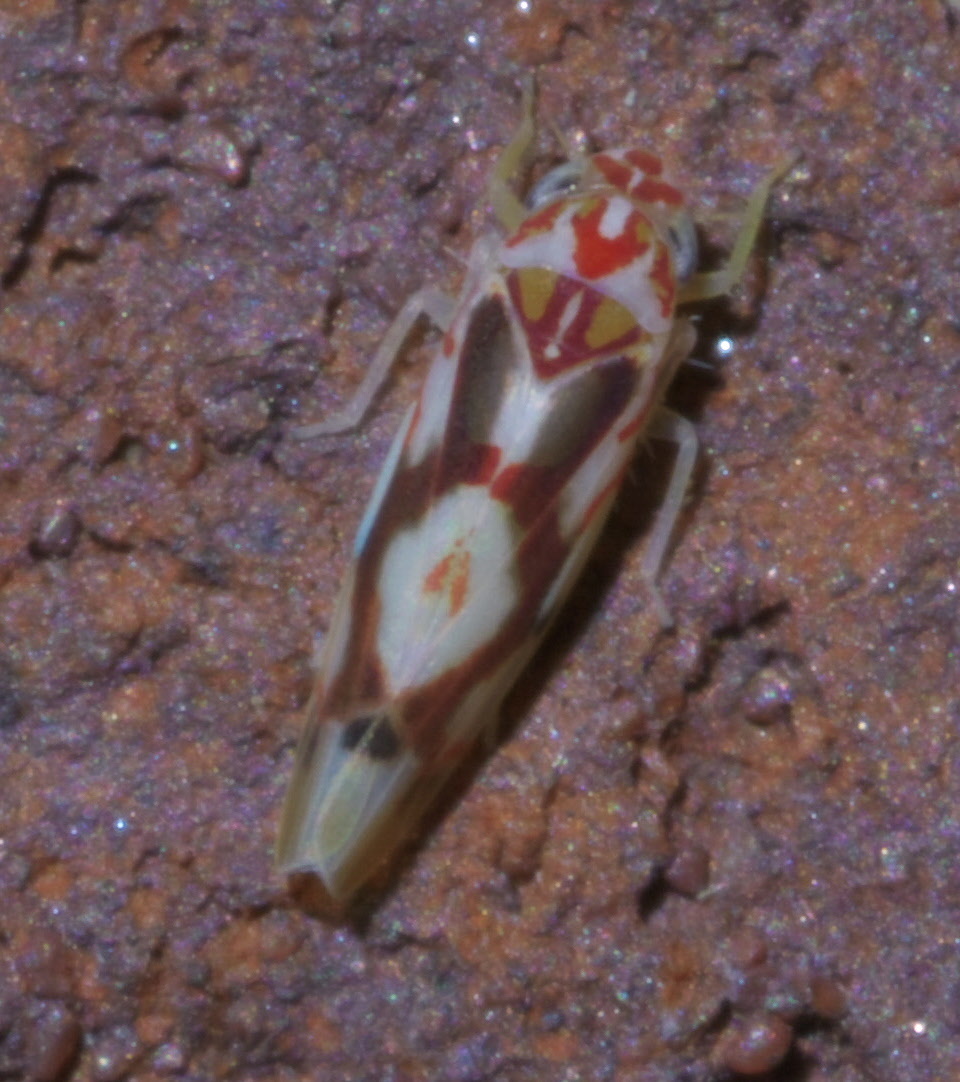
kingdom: Animalia
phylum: Arthropoda
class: Insecta
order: Hemiptera
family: Cicadellidae
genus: Eratoneura
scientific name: Eratoneura ligata
